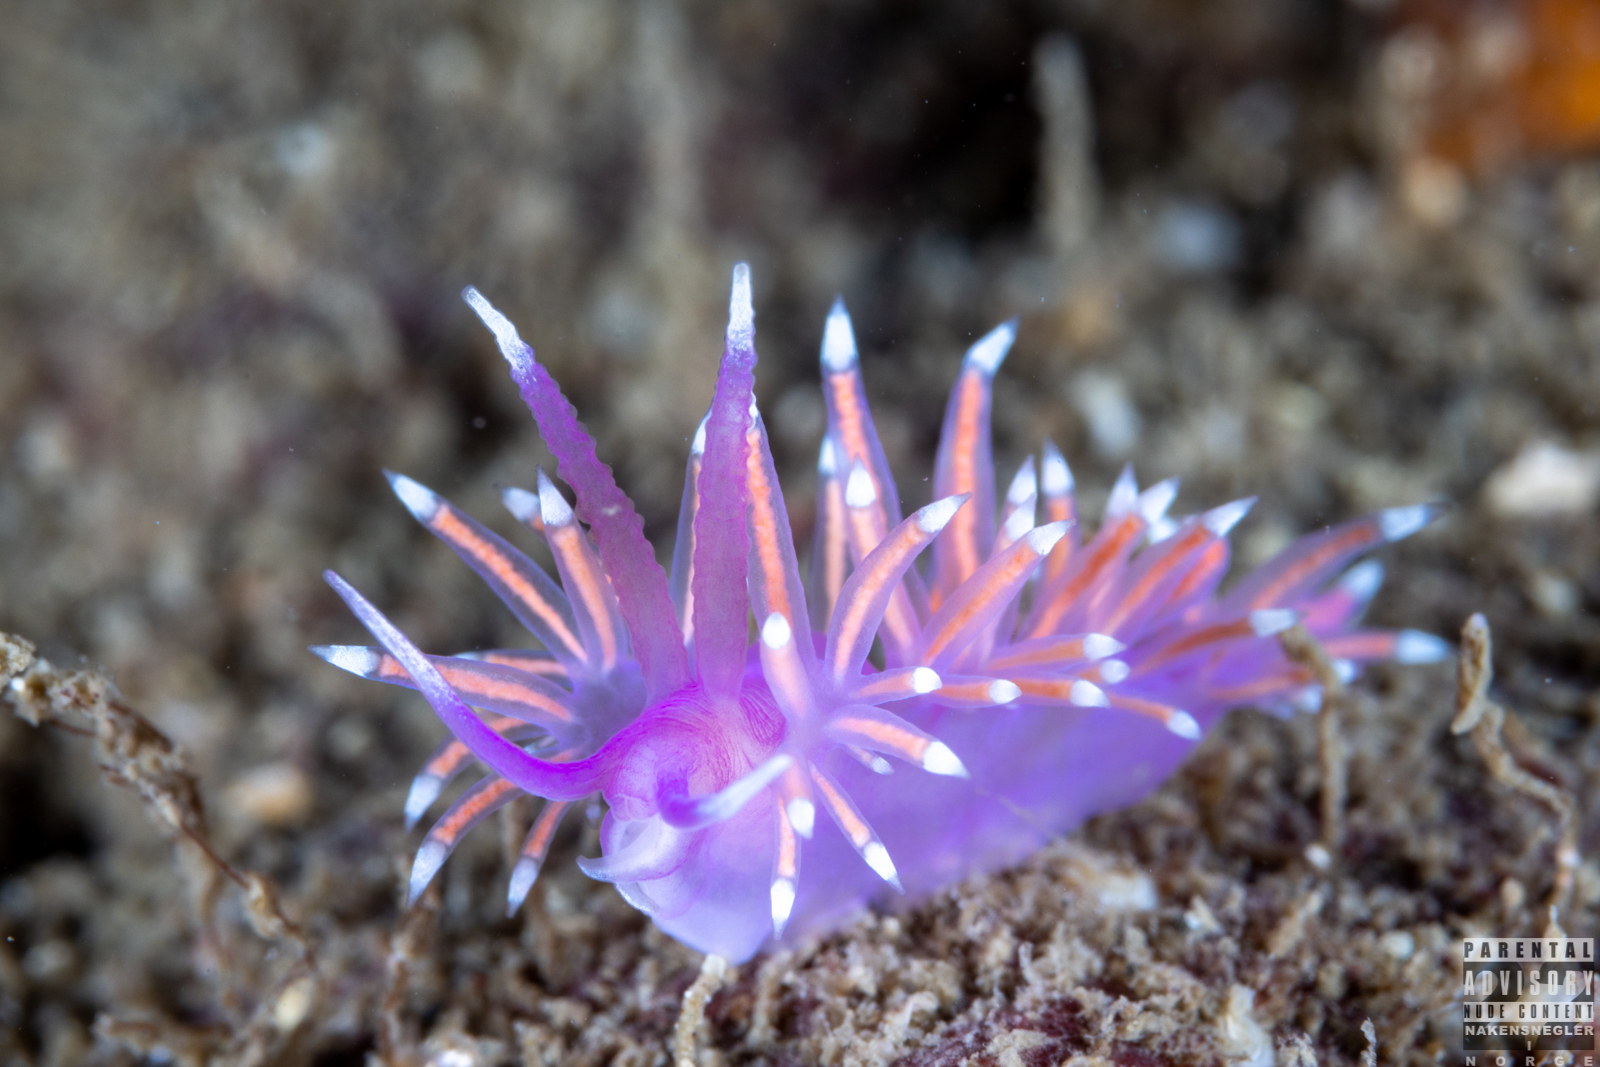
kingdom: Animalia
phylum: Mollusca
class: Gastropoda
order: Nudibranchia
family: Flabellinidae
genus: Edmundsella
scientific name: Edmundsella pedata
